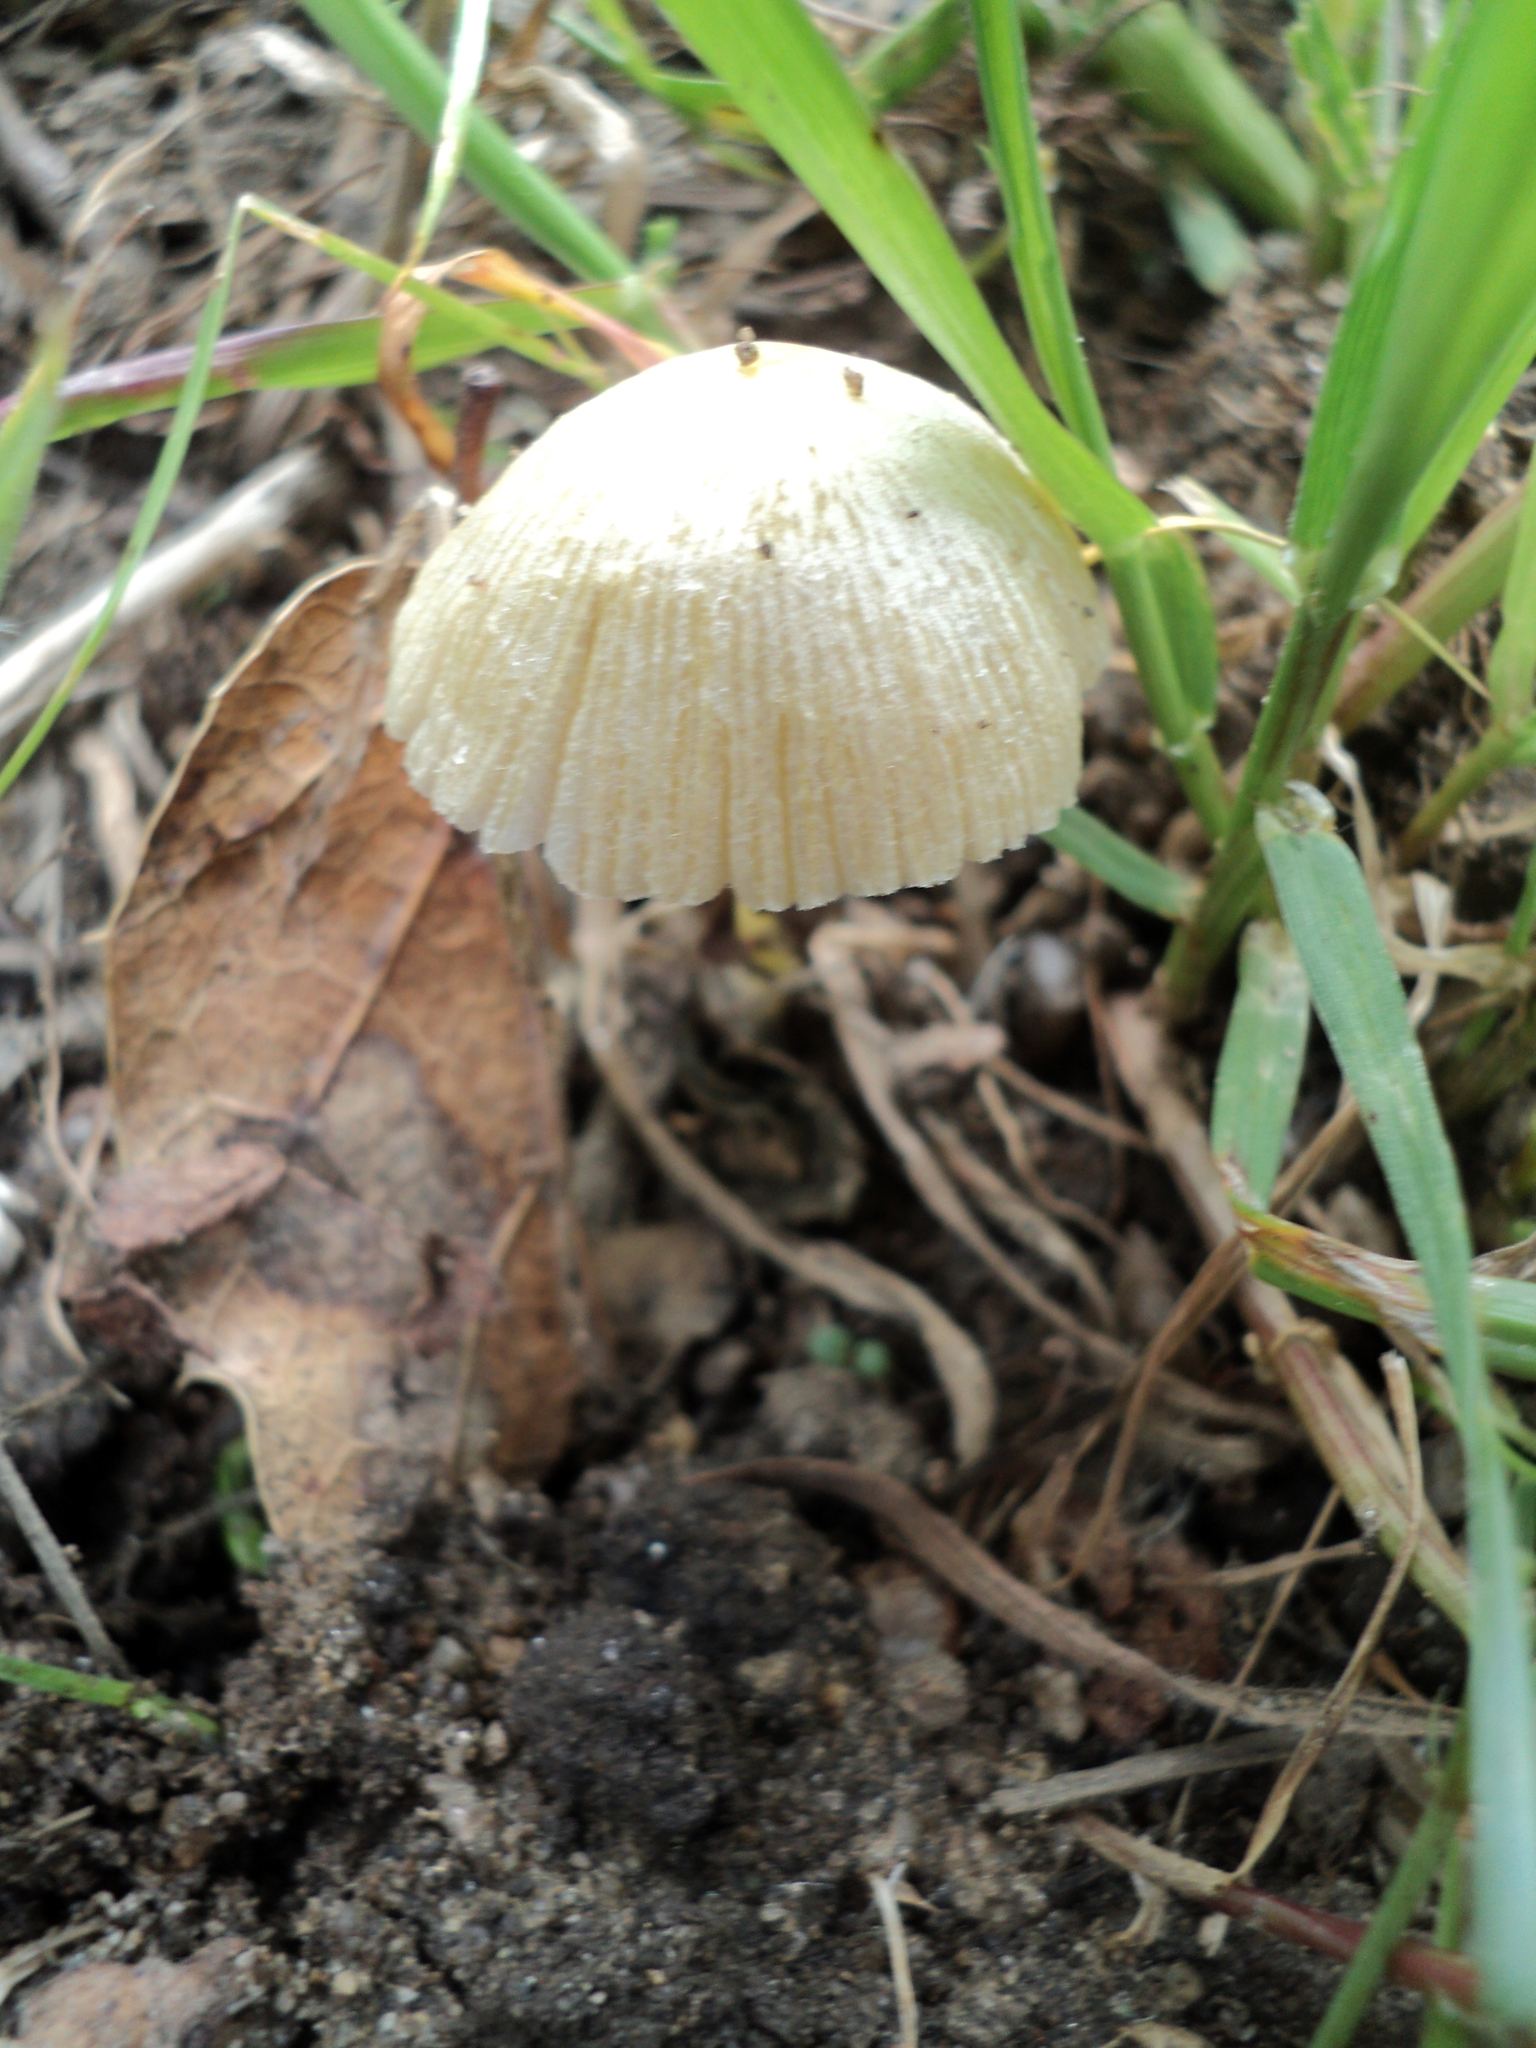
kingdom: Fungi
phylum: Basidiomycota
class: Agaricomycetes
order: Agaricales
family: Bolbitiaceae
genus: Bolbitius
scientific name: Bolbitius titubans
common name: Yellow fieldcap
